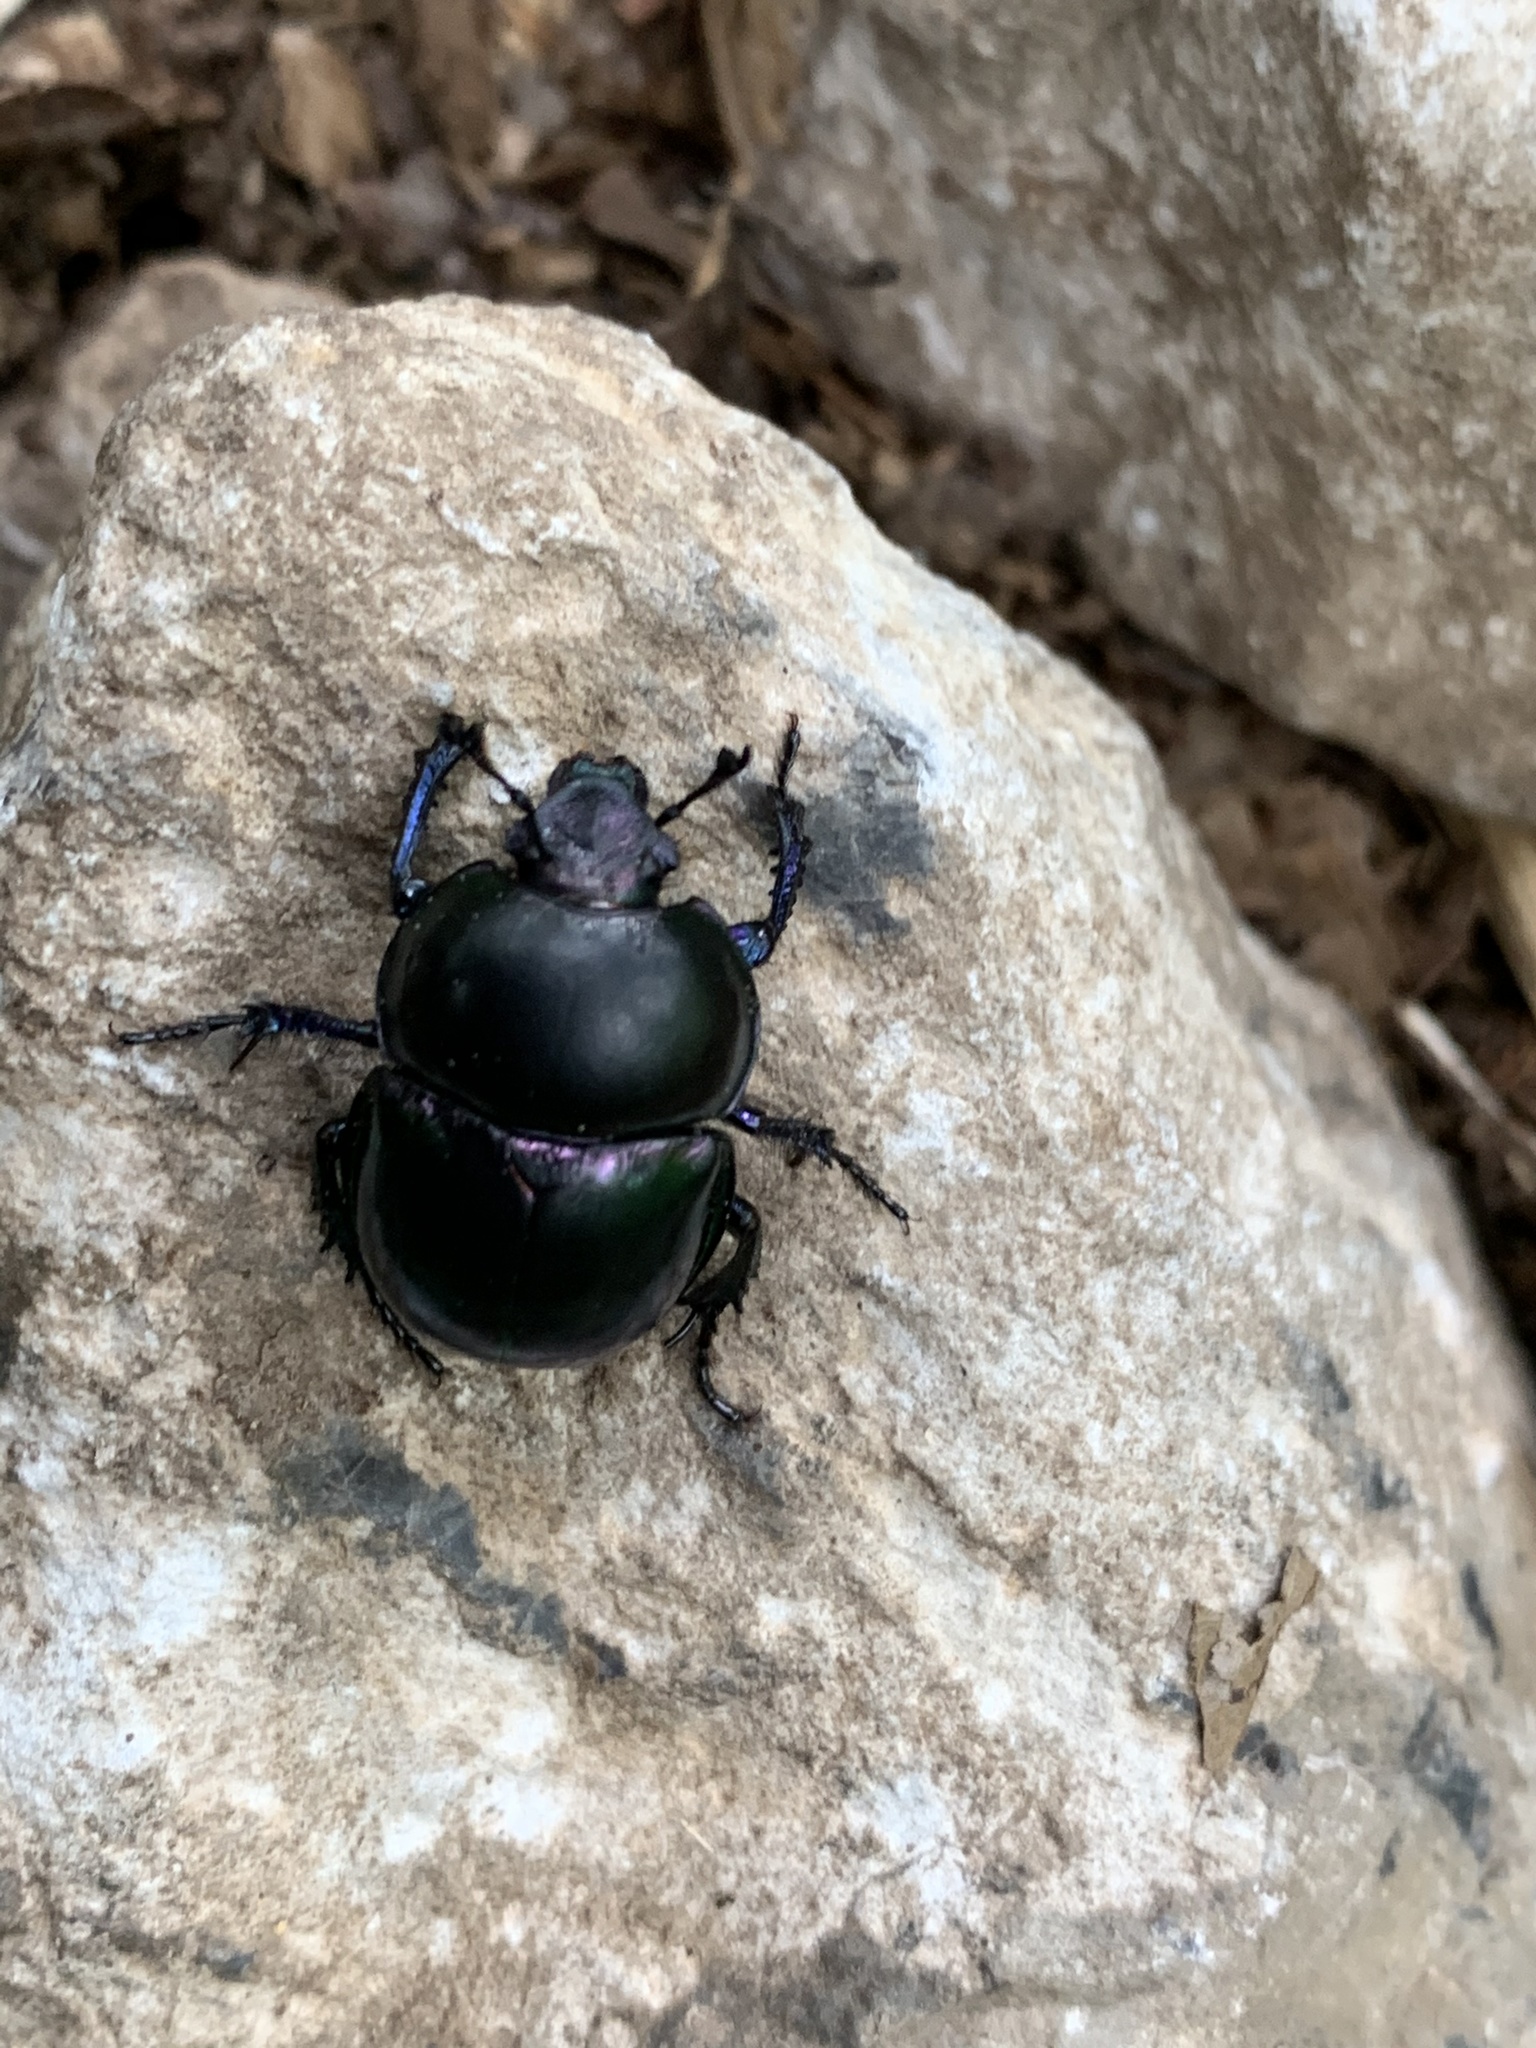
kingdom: Animalia
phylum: Arthropoda
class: Insecta
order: Coleoptera
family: Geotrupidae
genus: Trypocopris
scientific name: Trypocopris vernalis
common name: Spring dumbledor
